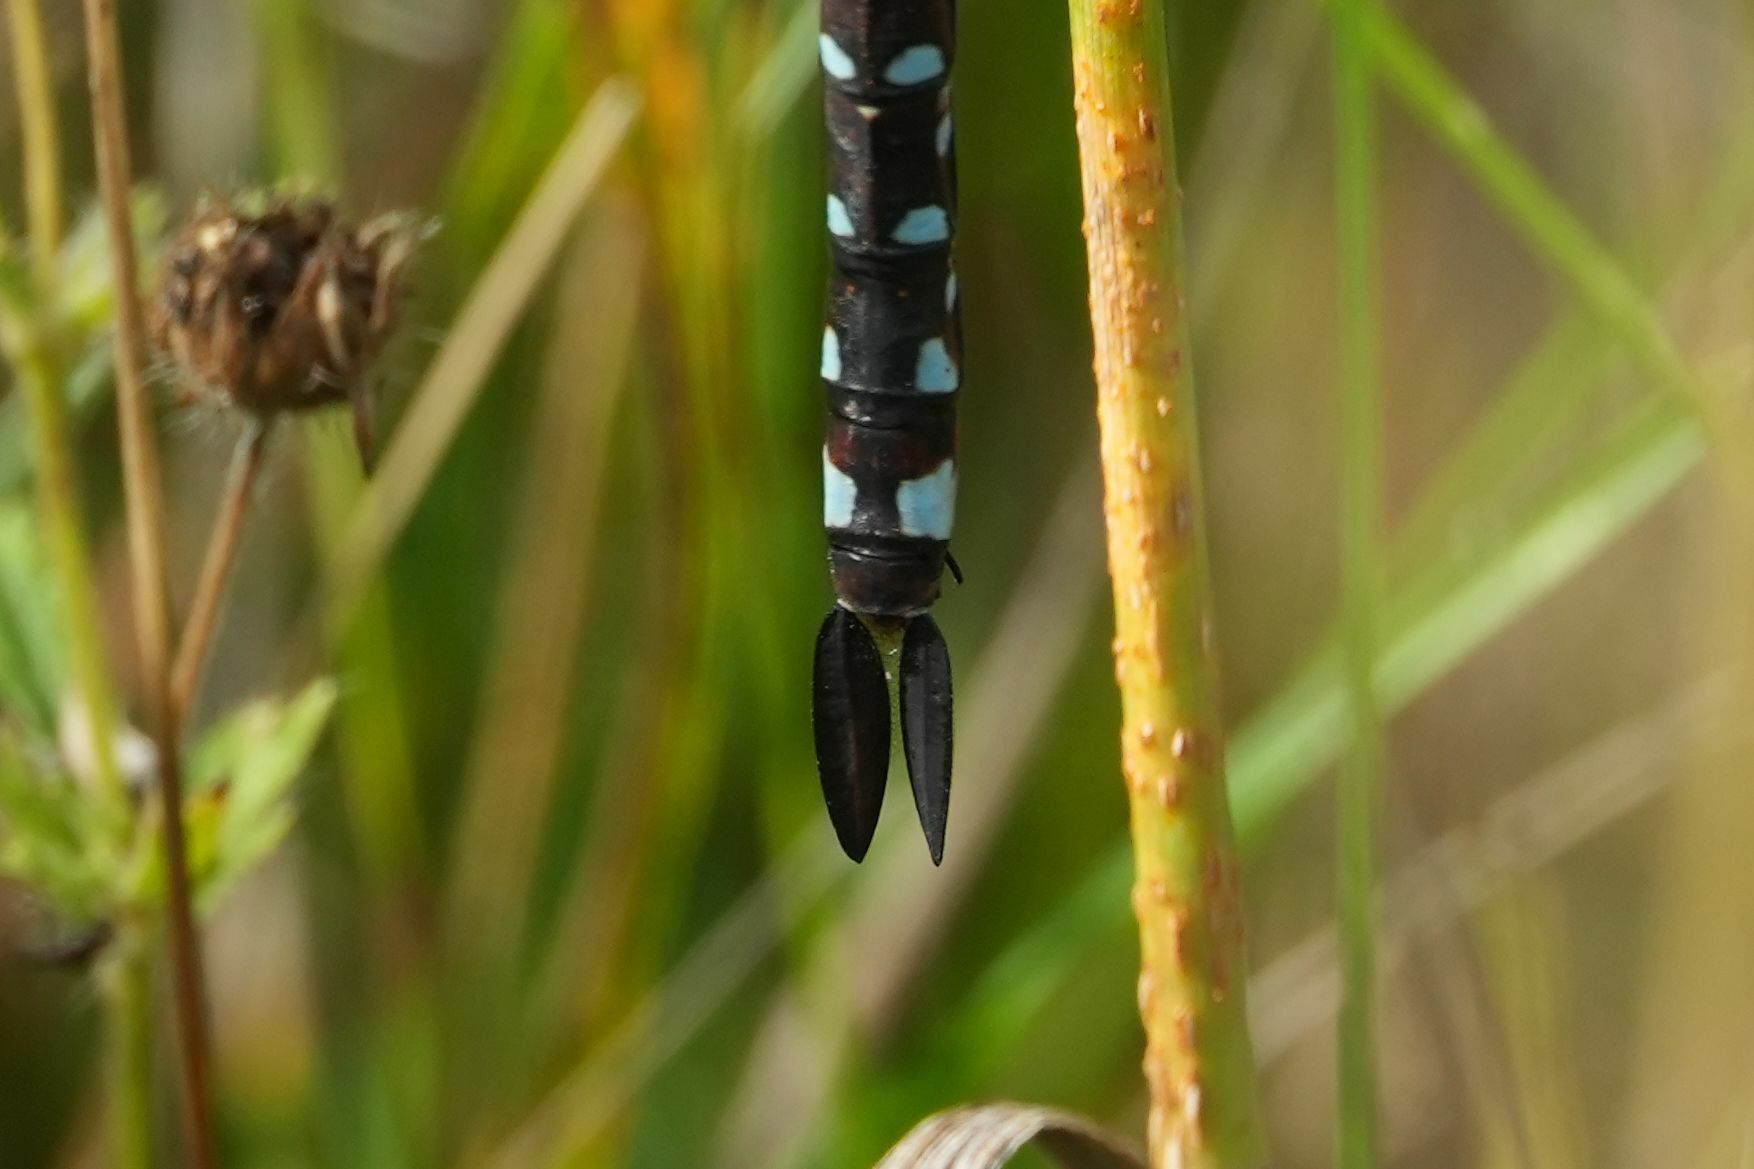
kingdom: Animalia
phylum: Arthropoda
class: Insecta
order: Odonata
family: Aeshnidae
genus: Aeshna
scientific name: Aeshna constricta
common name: Lance-tipped darner
